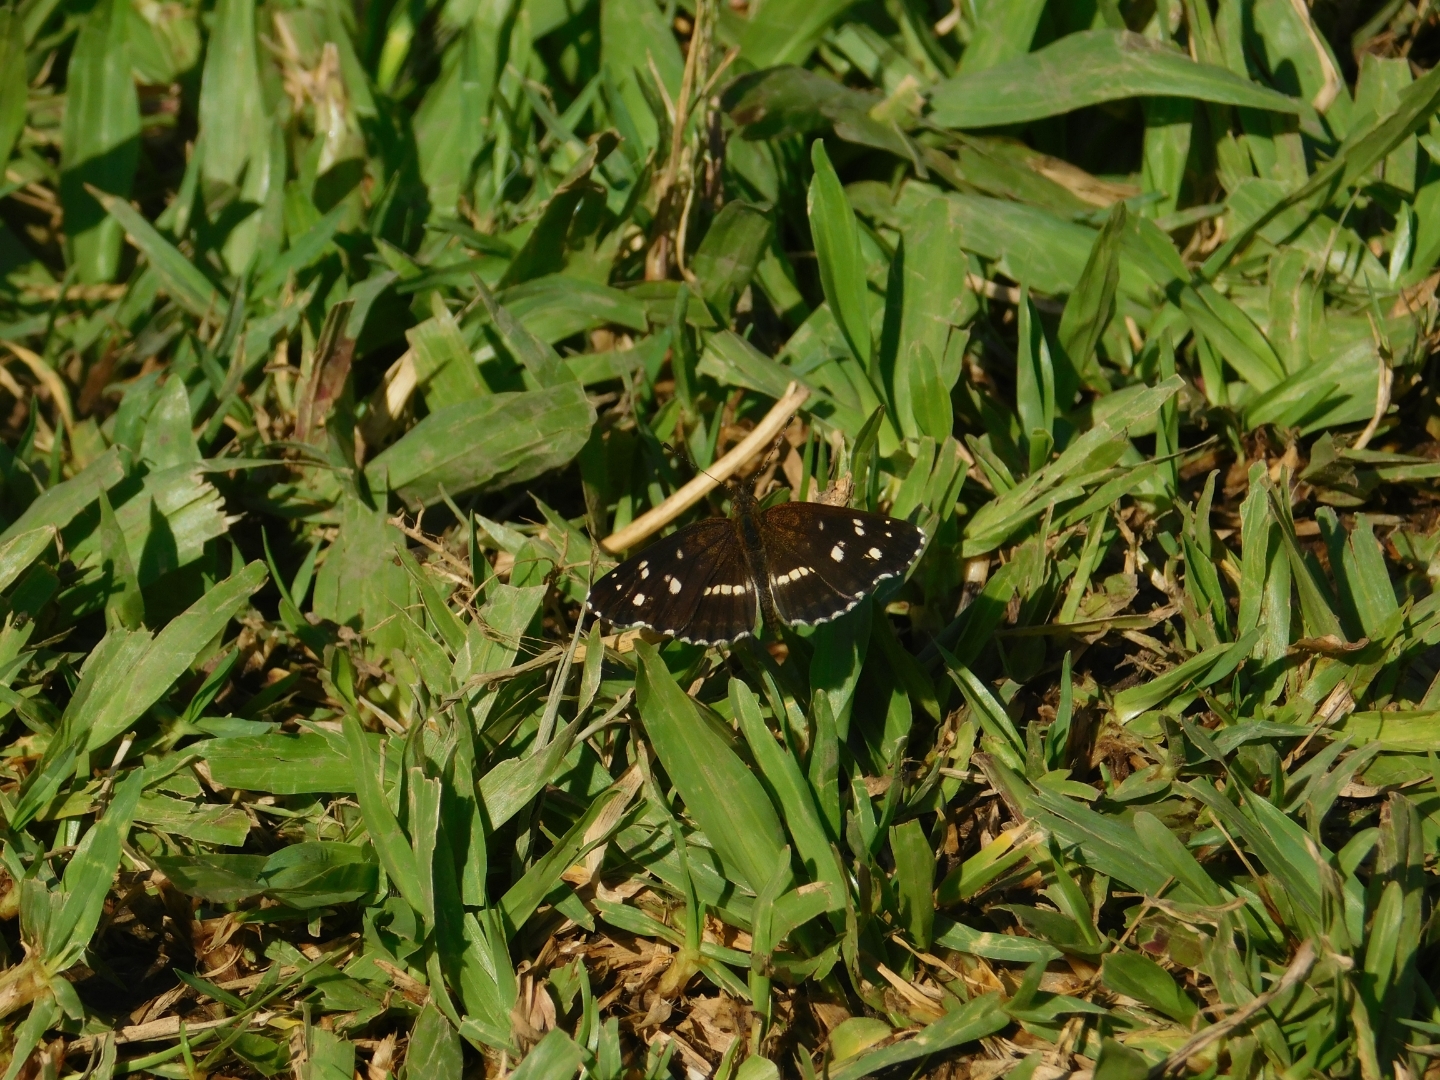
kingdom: Animalia
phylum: Arthropoda
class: Insecta
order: Lepidoptera
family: Nymphalidae
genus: Ortilia
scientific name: Ortilia ithra
